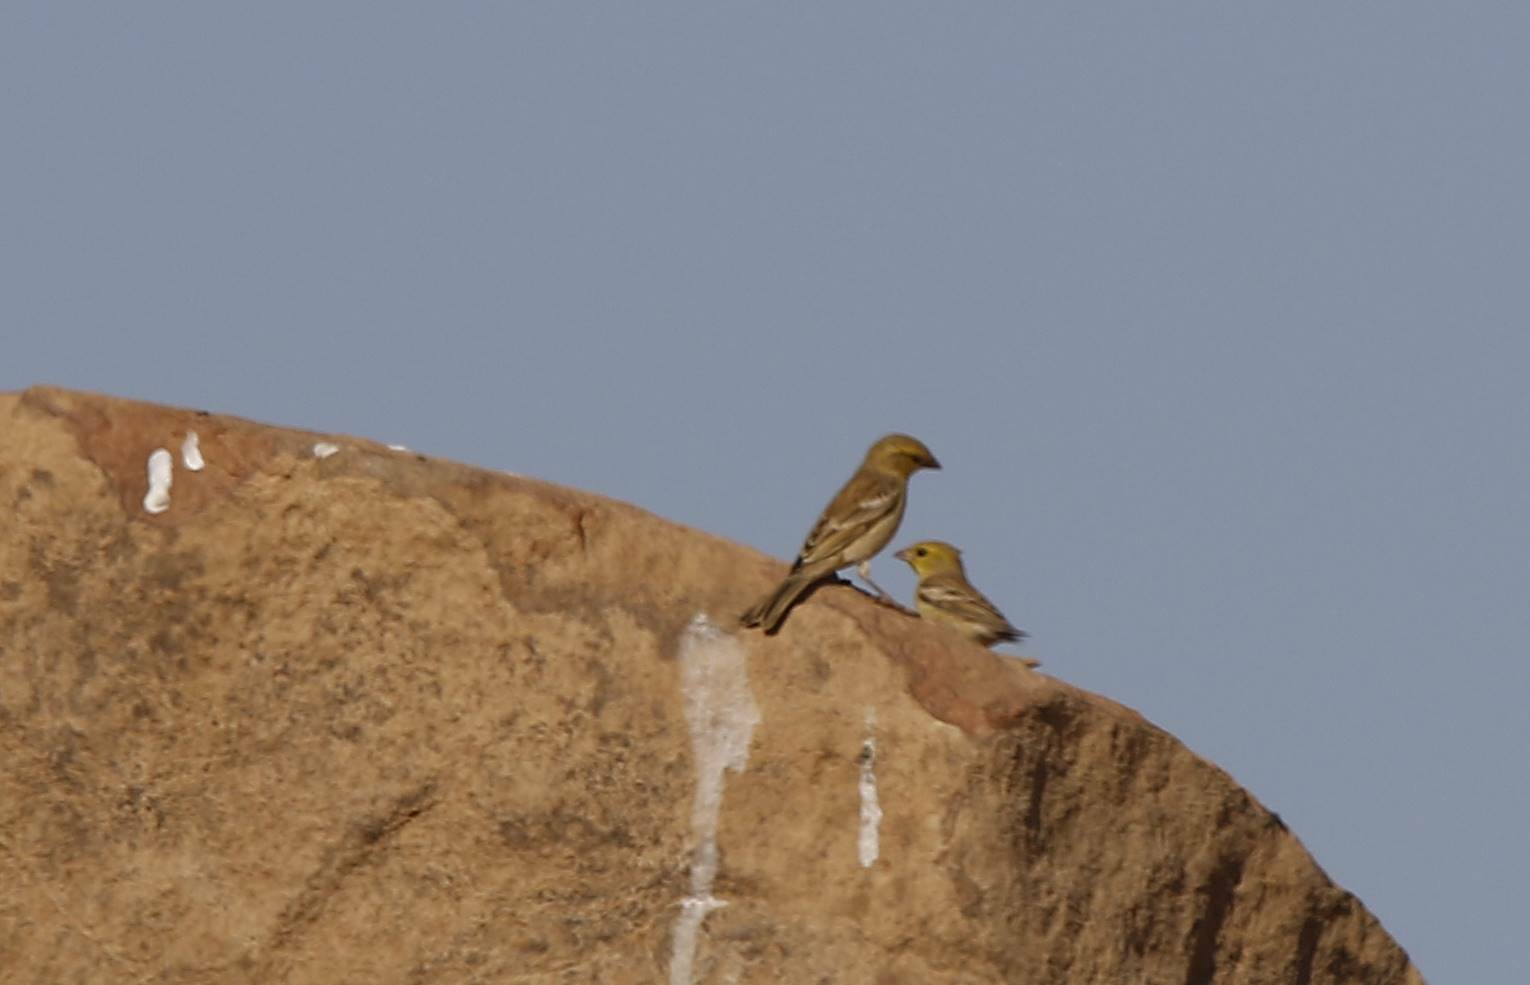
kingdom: Animalia
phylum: Chordata
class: Aves
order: Passeriformes
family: Passeridae
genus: Passer
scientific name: Passer luteus
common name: Sudan golden sparrow
